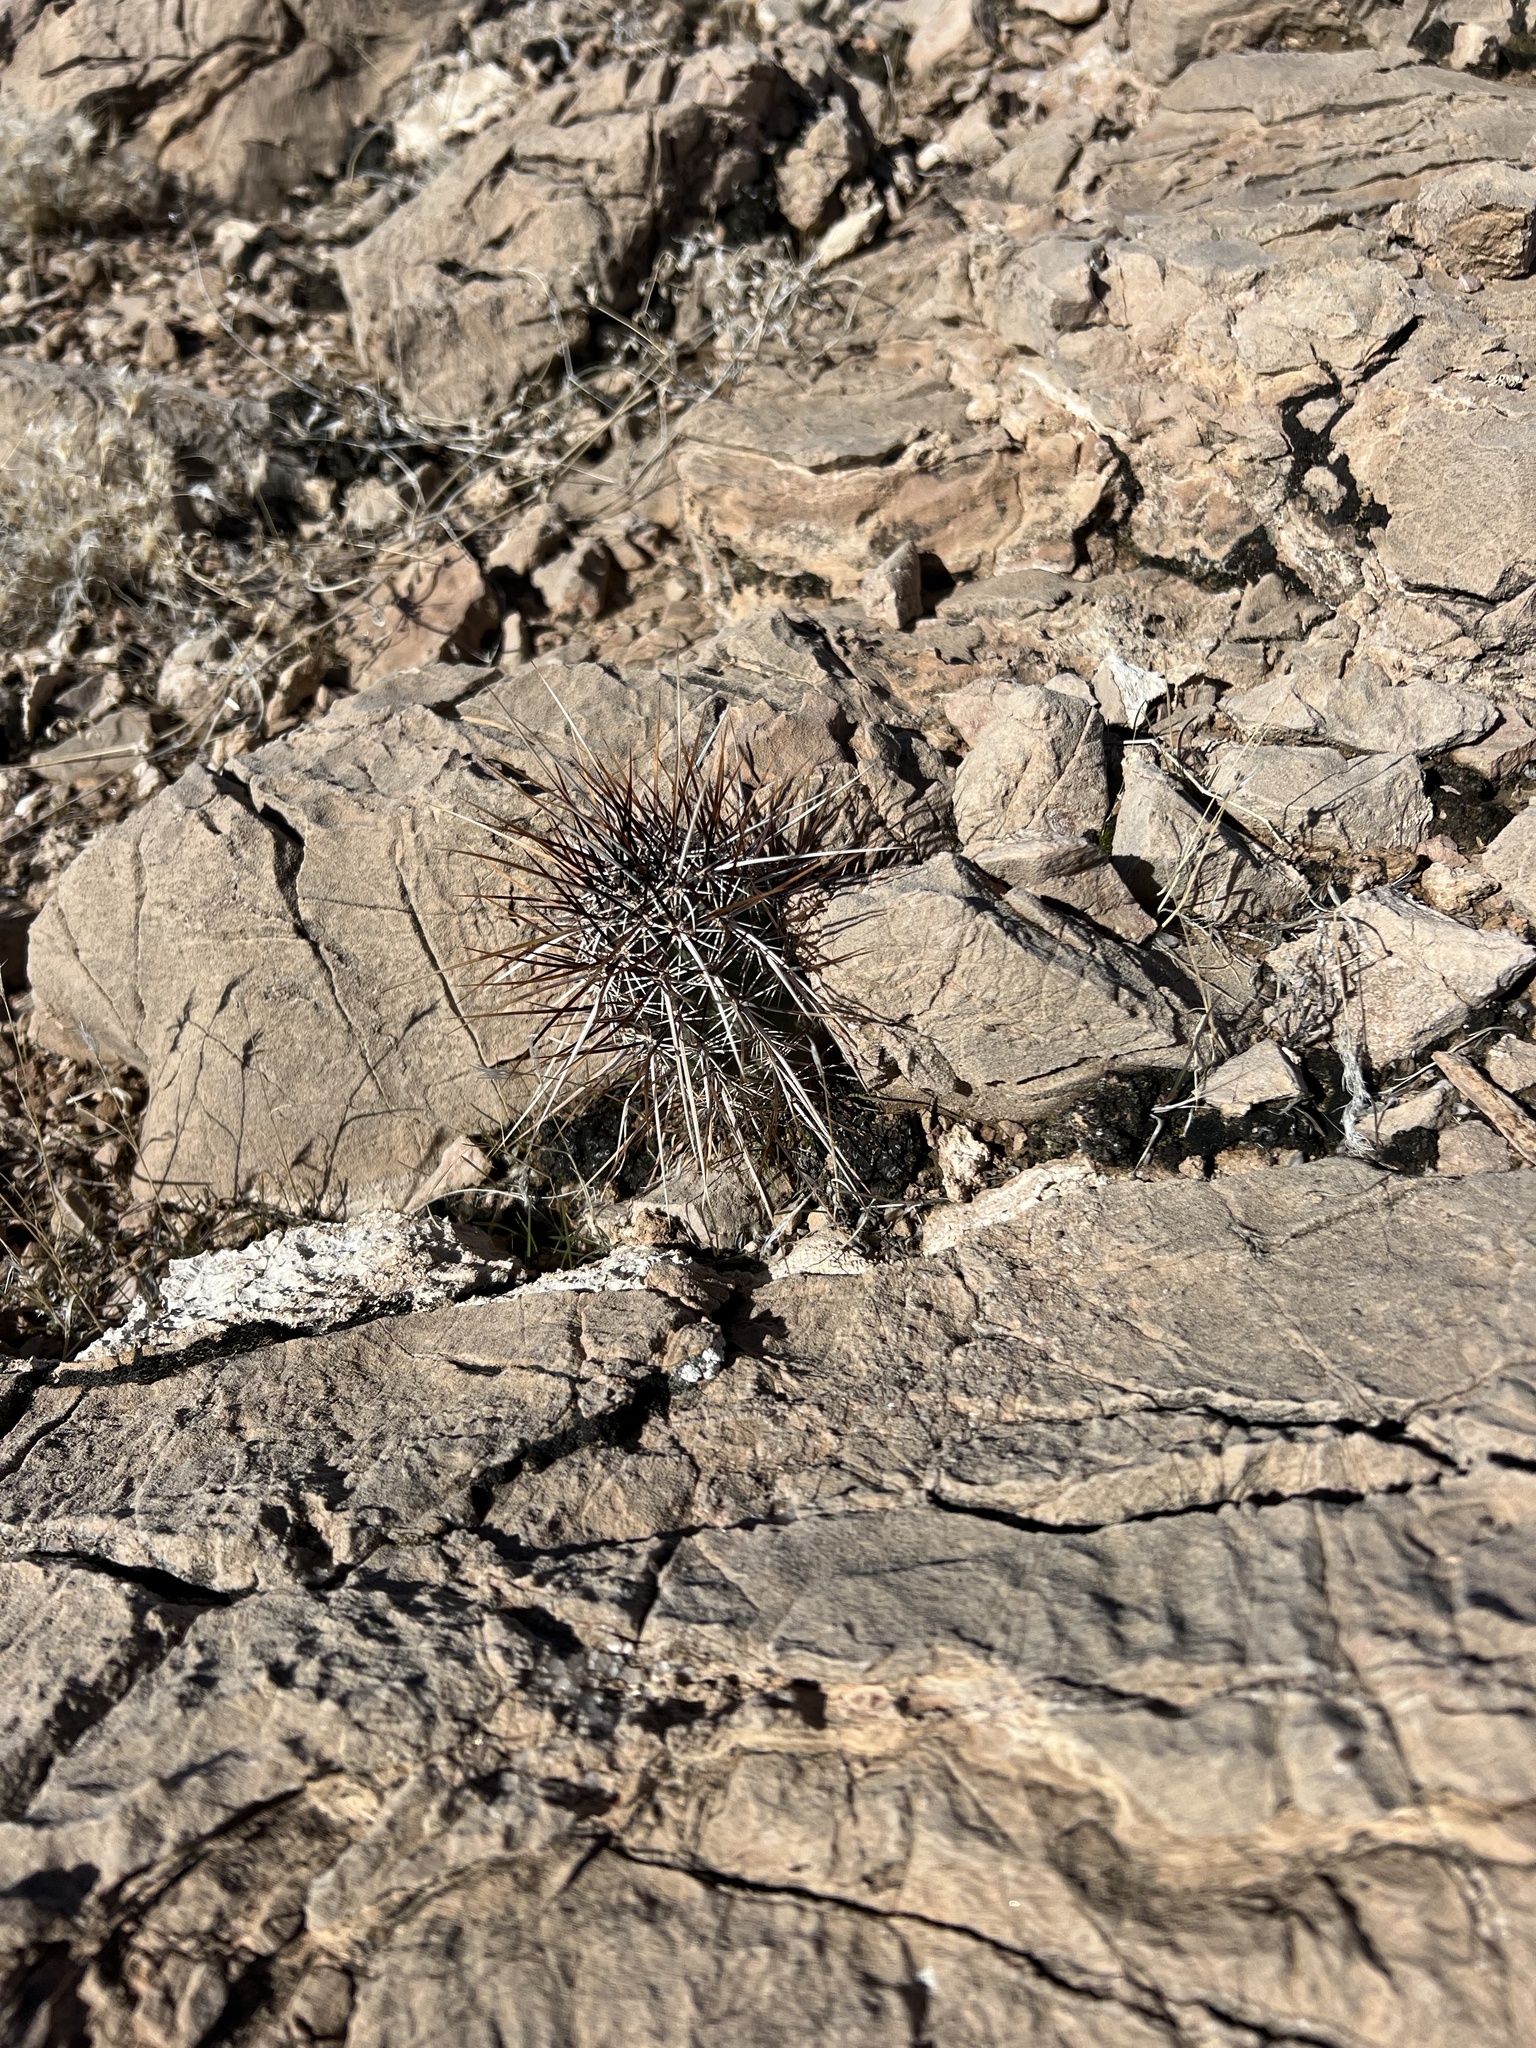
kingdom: Plantae
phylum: Tracheophyta
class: Magnoliopsida
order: Caryophyllales
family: Cactaceae
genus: Echinocereus
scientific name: Echinocereus engelmannii
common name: Engelmann's hedgehog cactus
